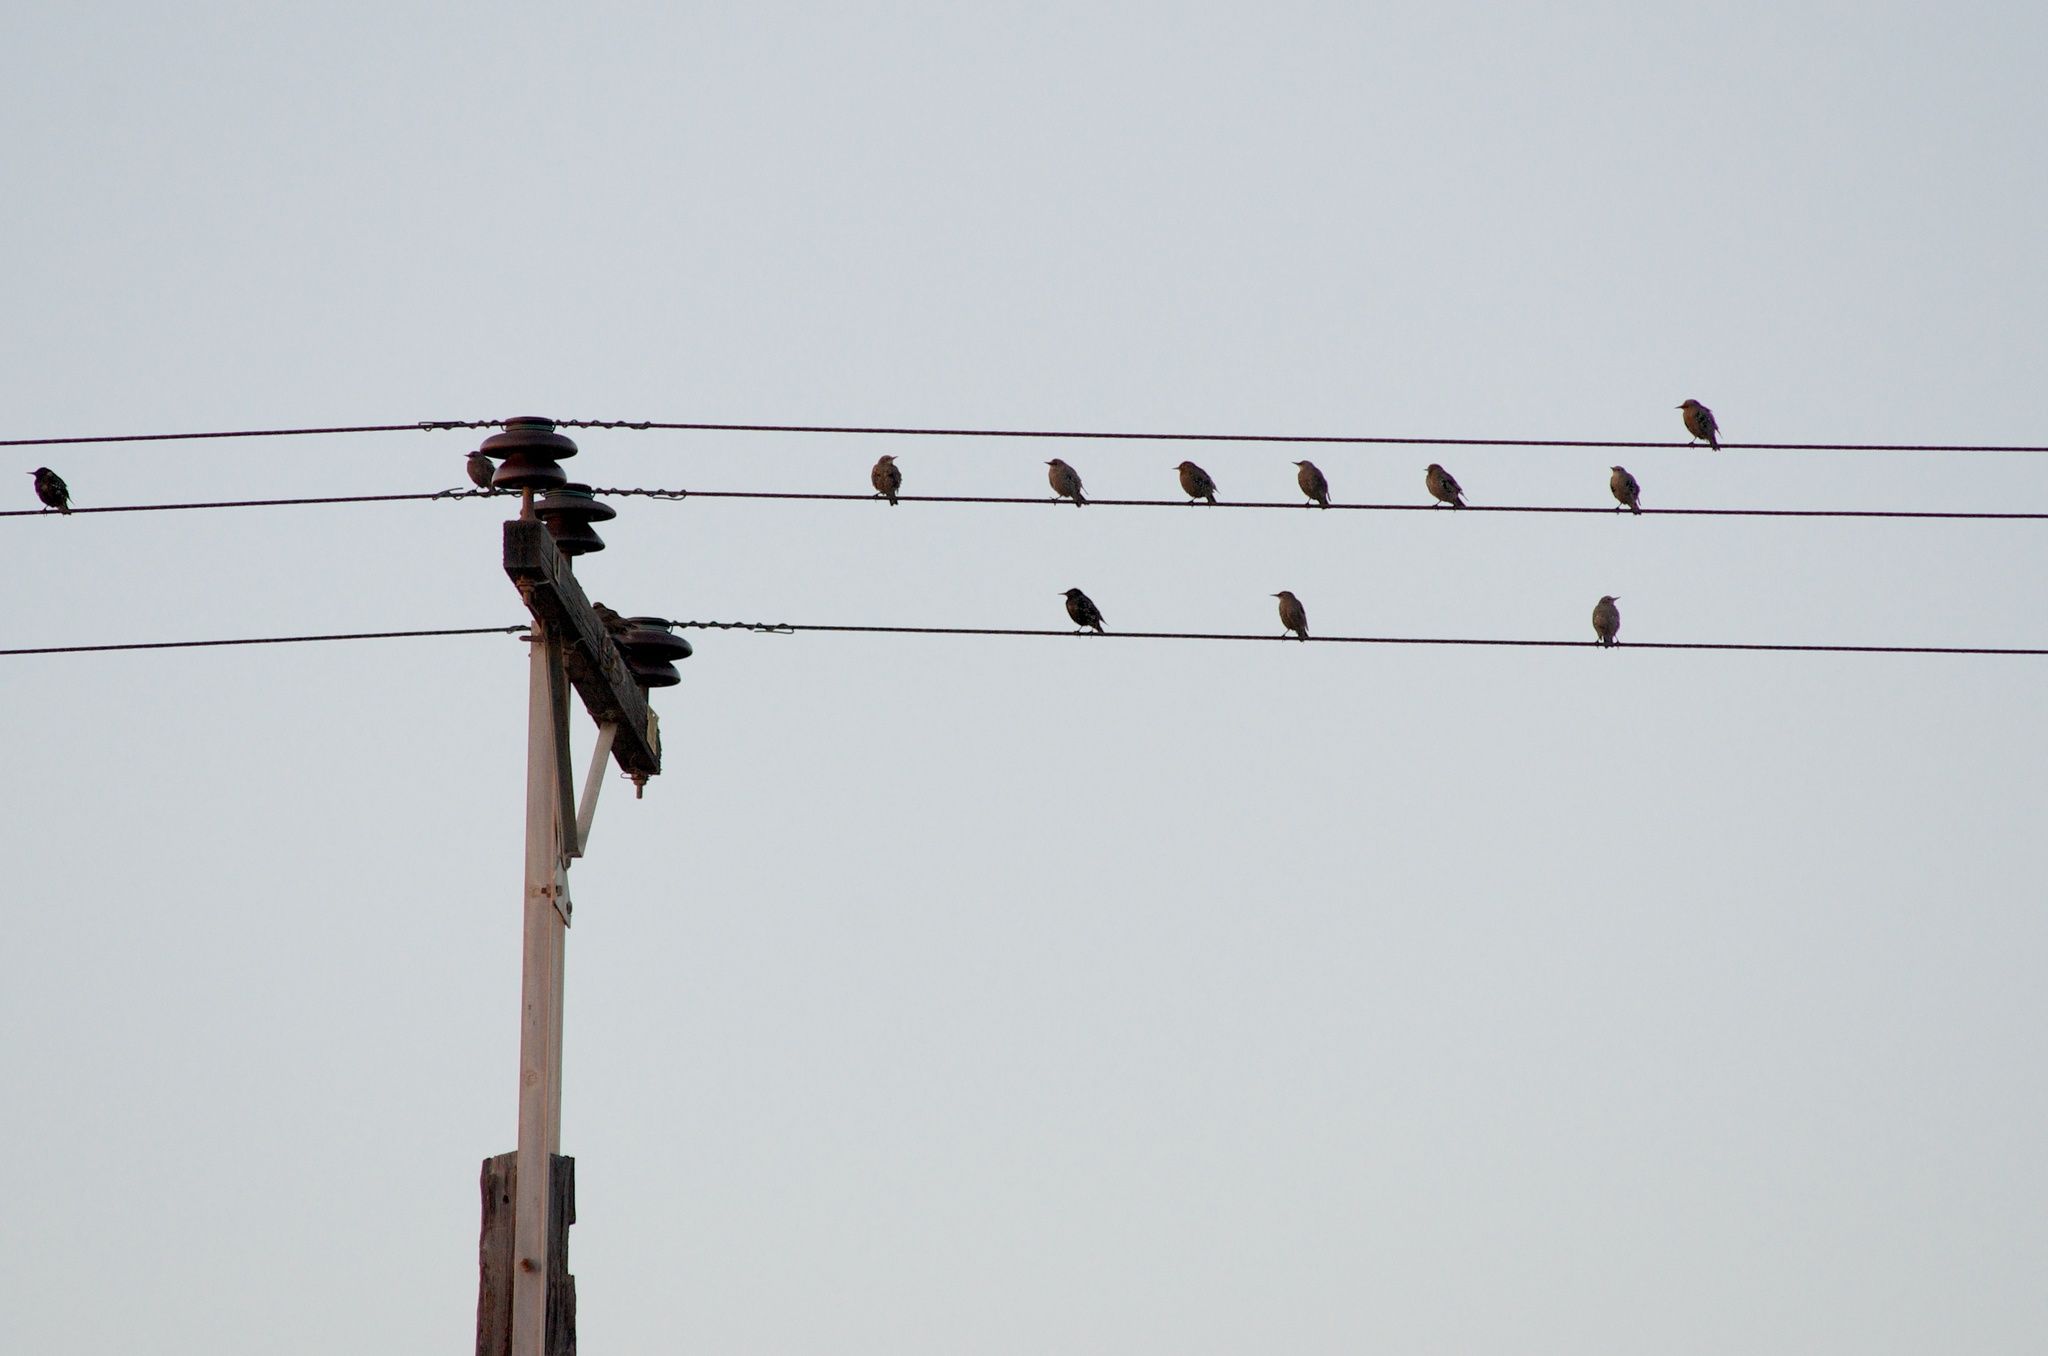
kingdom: Animalia
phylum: Chordata
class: Aves
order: Passeriformes
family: Sturnidae
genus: Sturnus
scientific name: Sturnus vulgaris
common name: Common starling
